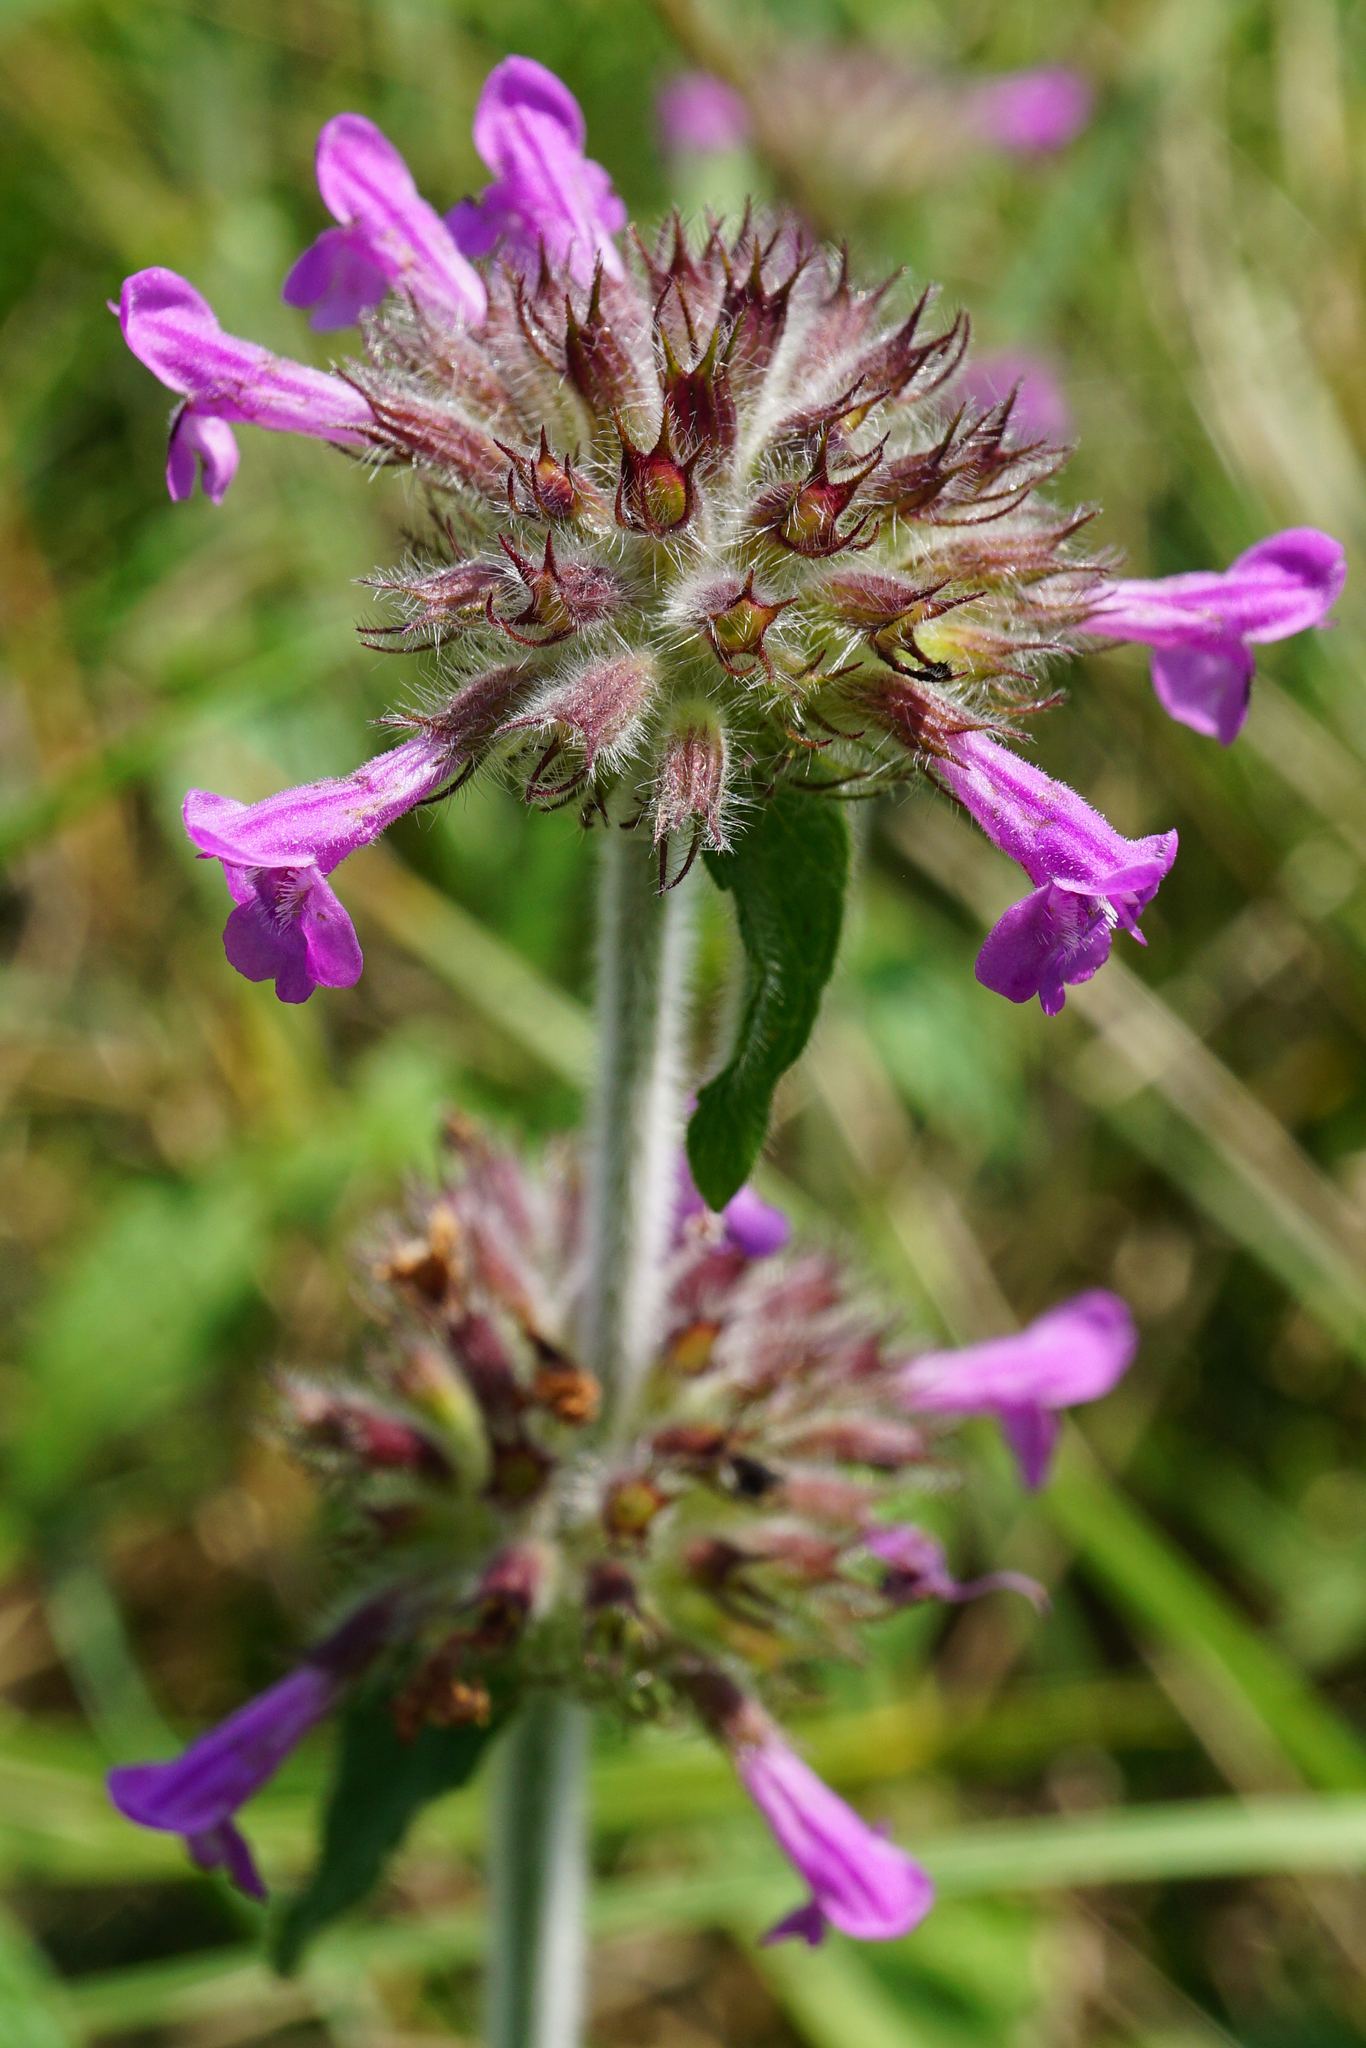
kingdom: Plantae
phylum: Tracheophyta
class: Magnoliopsida
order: Lamiales
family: Lamiaceae
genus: Clinopodium
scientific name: Clinopodium vulgare
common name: Wild basil
